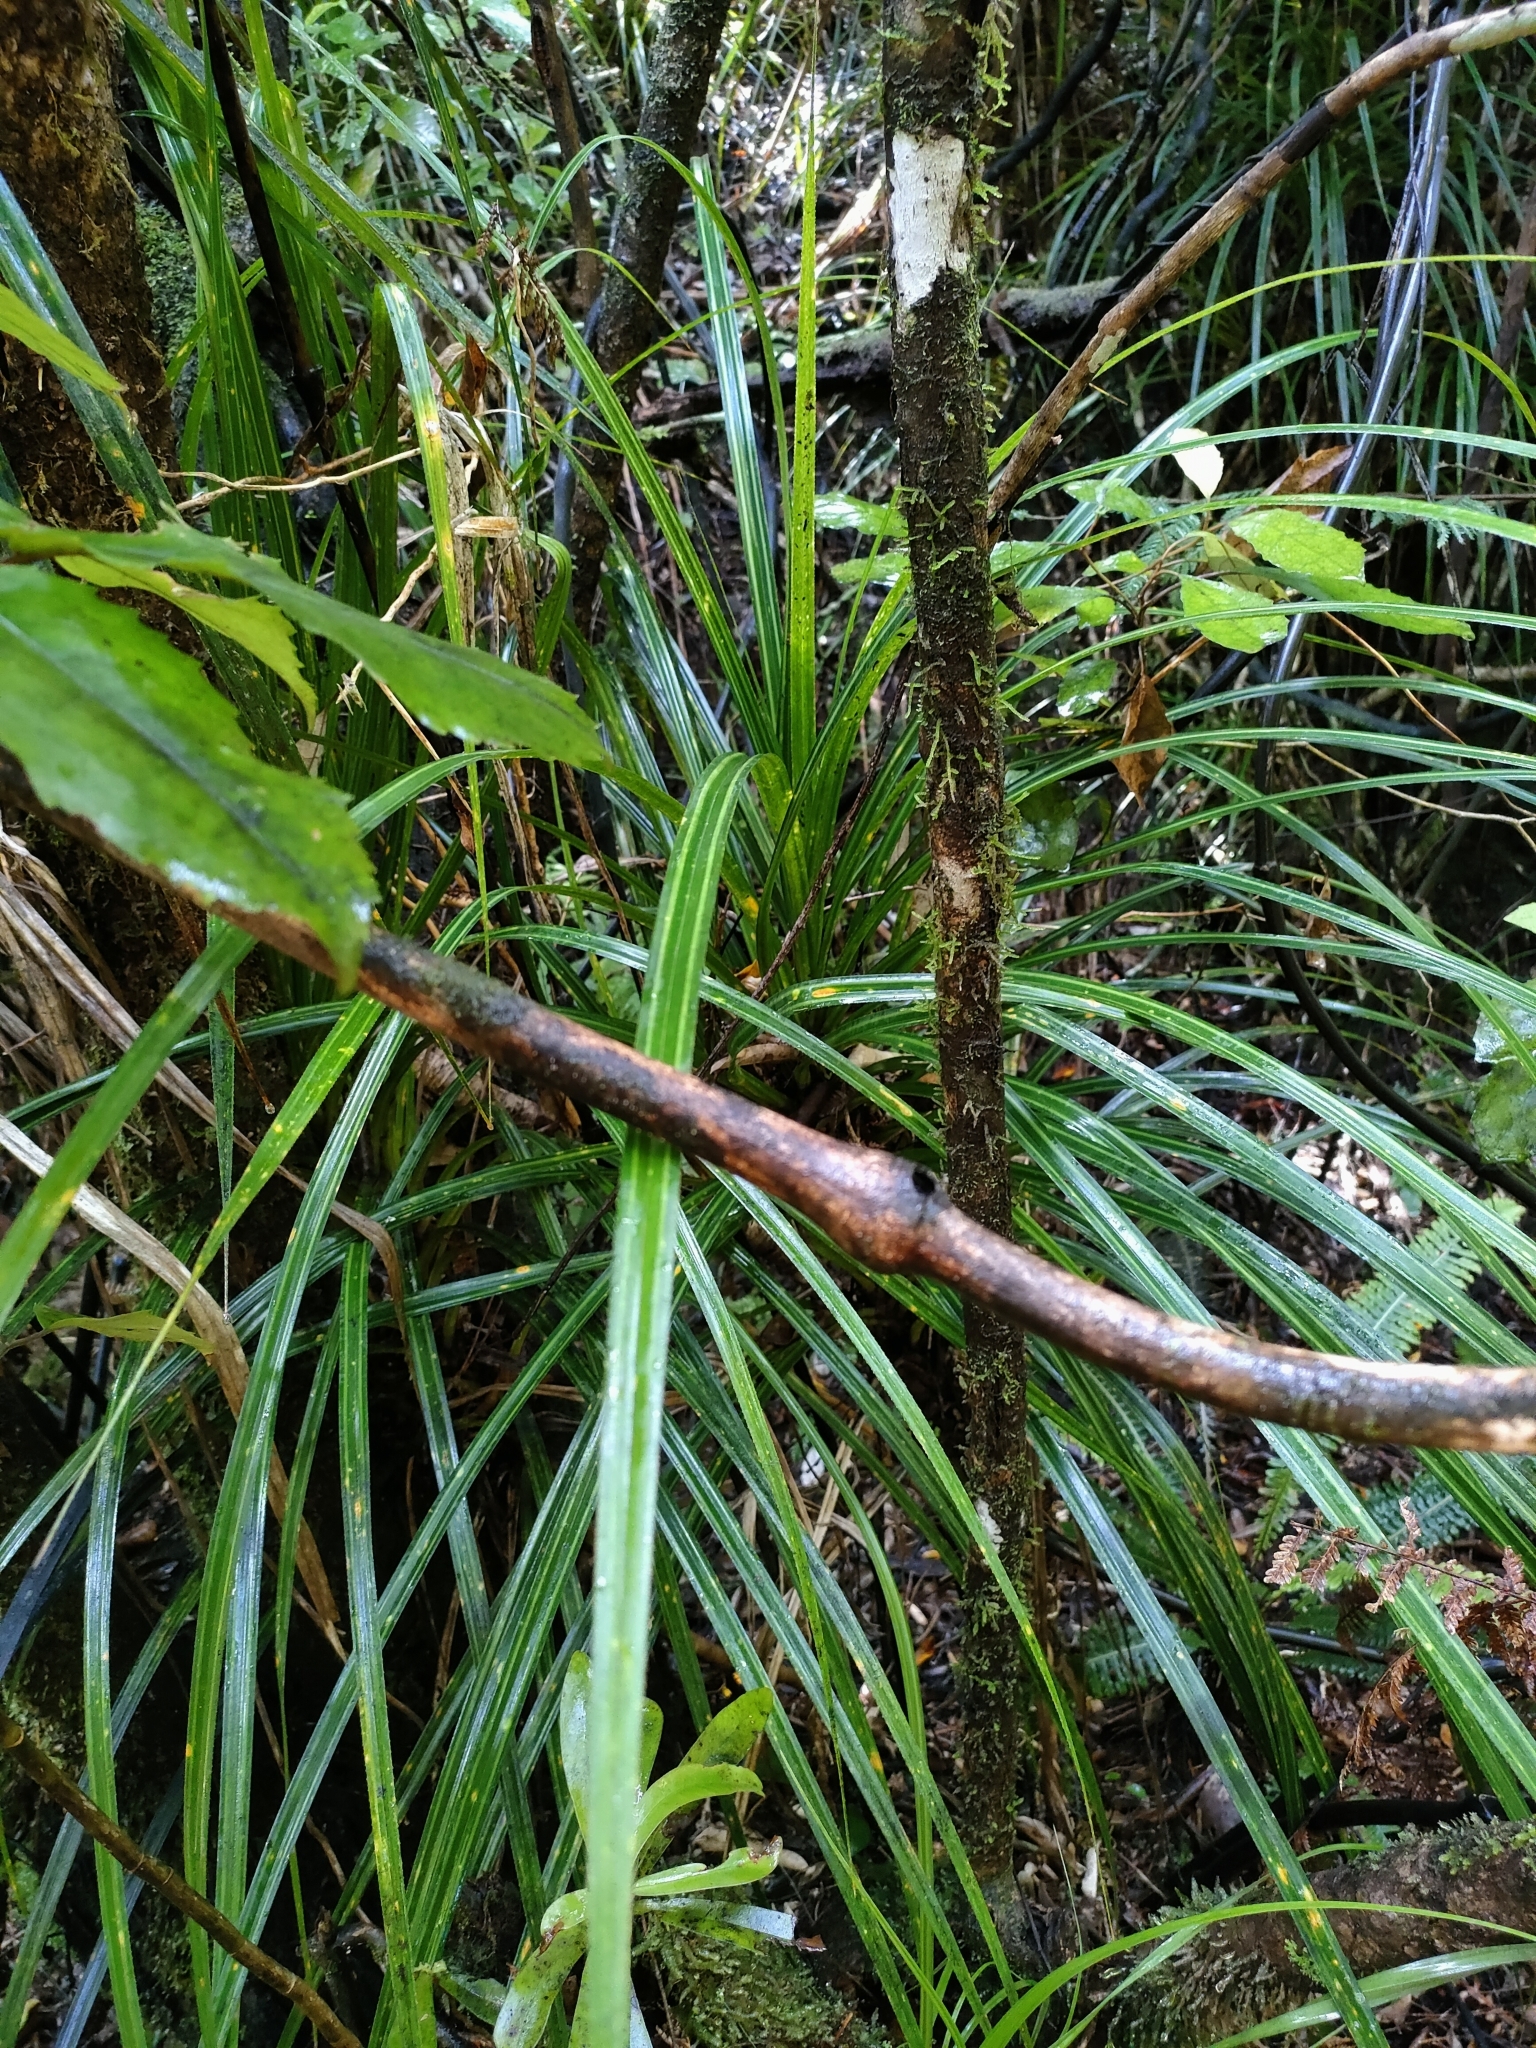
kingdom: Plantae
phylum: Tracheophyta
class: Liliopsida
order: Pandanales
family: Pandanaceae
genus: Freycinetia
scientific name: Freycinetia banksii
